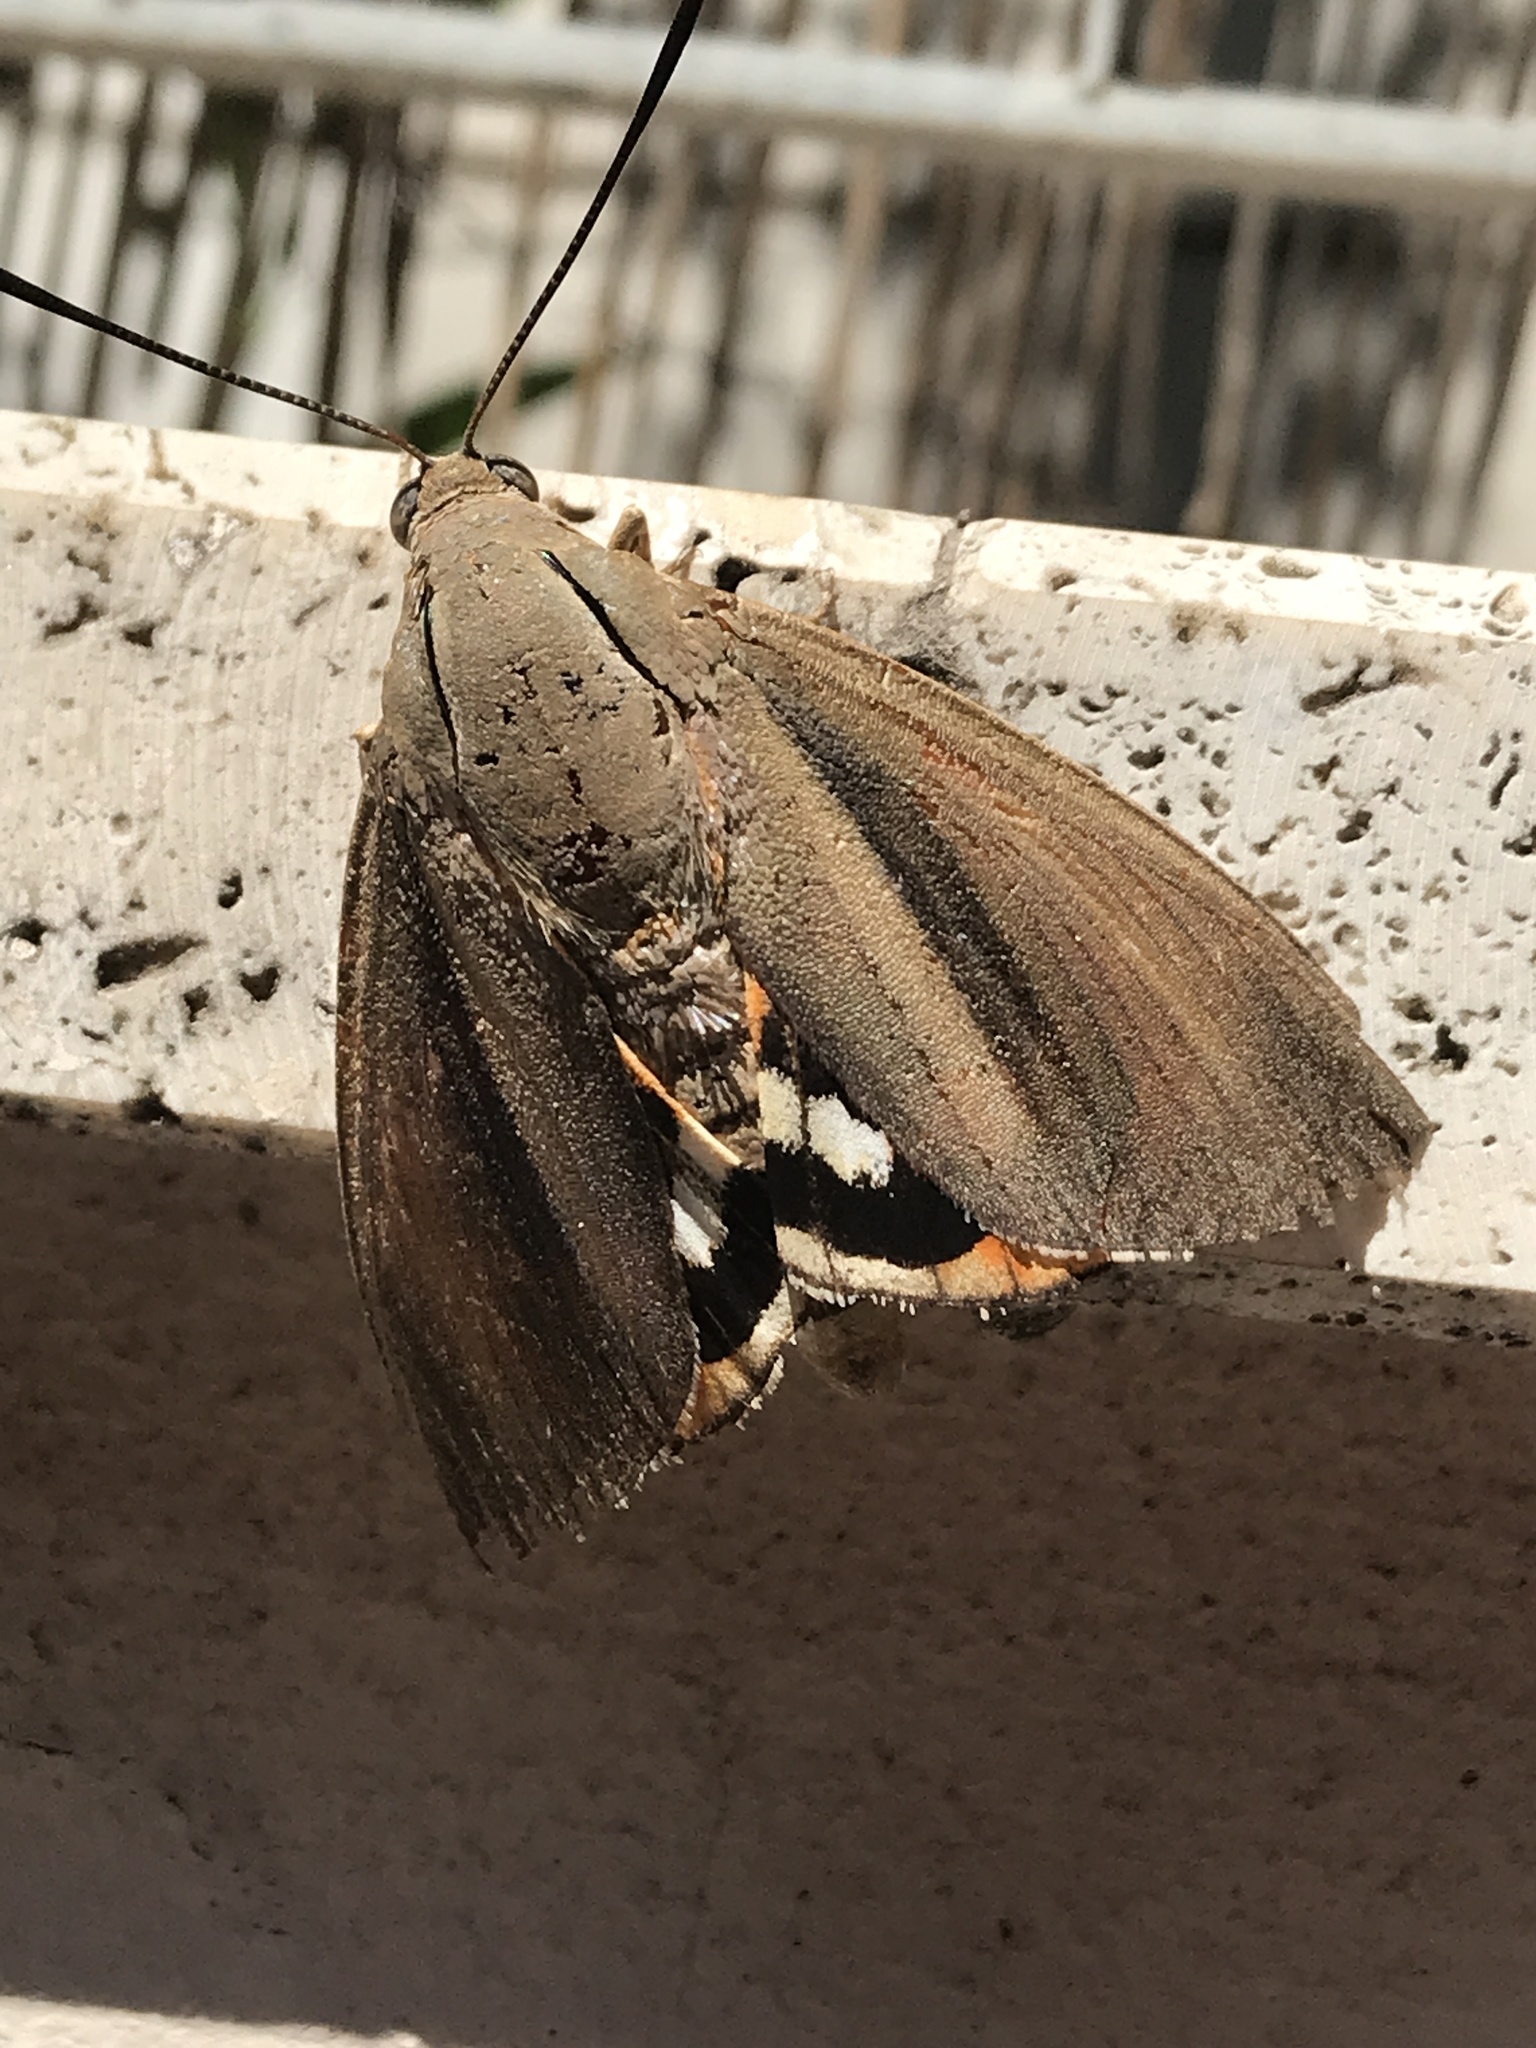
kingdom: Animalia
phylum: Arthropoda
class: Insecta
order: Lepidoptera
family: Castniidae
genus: Paysandisia
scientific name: Paysandisia archon
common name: Palm moth
